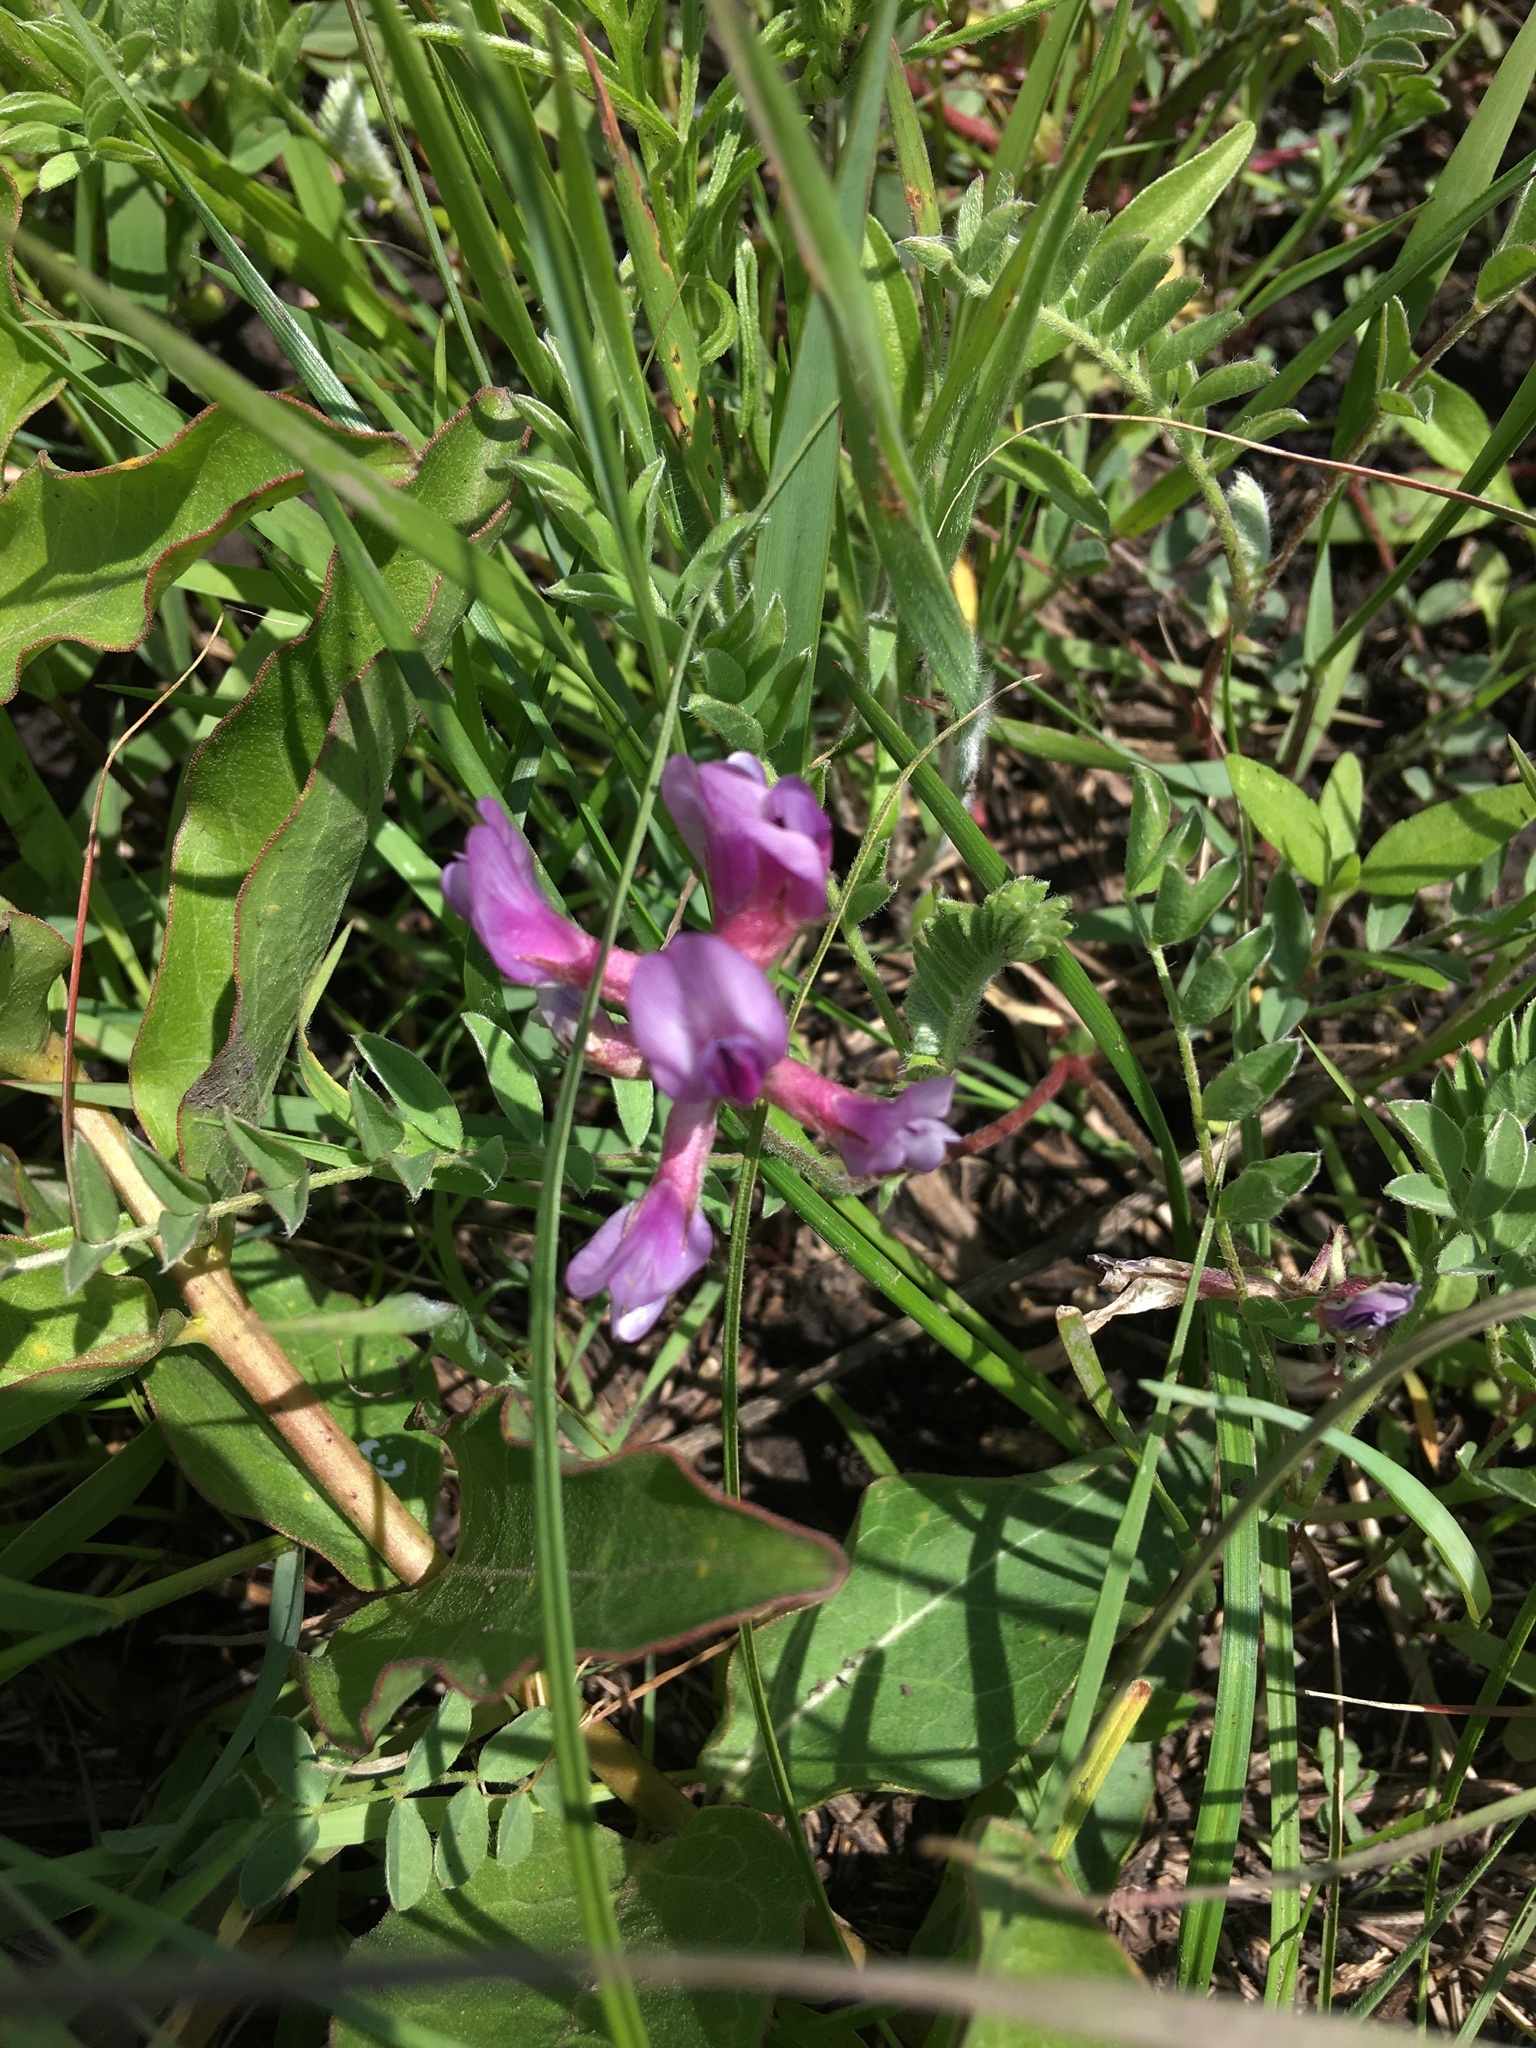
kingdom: Plantae
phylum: Tracheophyta
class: Magnoliopsida
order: Fabales
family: Fabaceae
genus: Astragalus
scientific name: Astragalus crassicarpus
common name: Ground-plum milk-vetch
